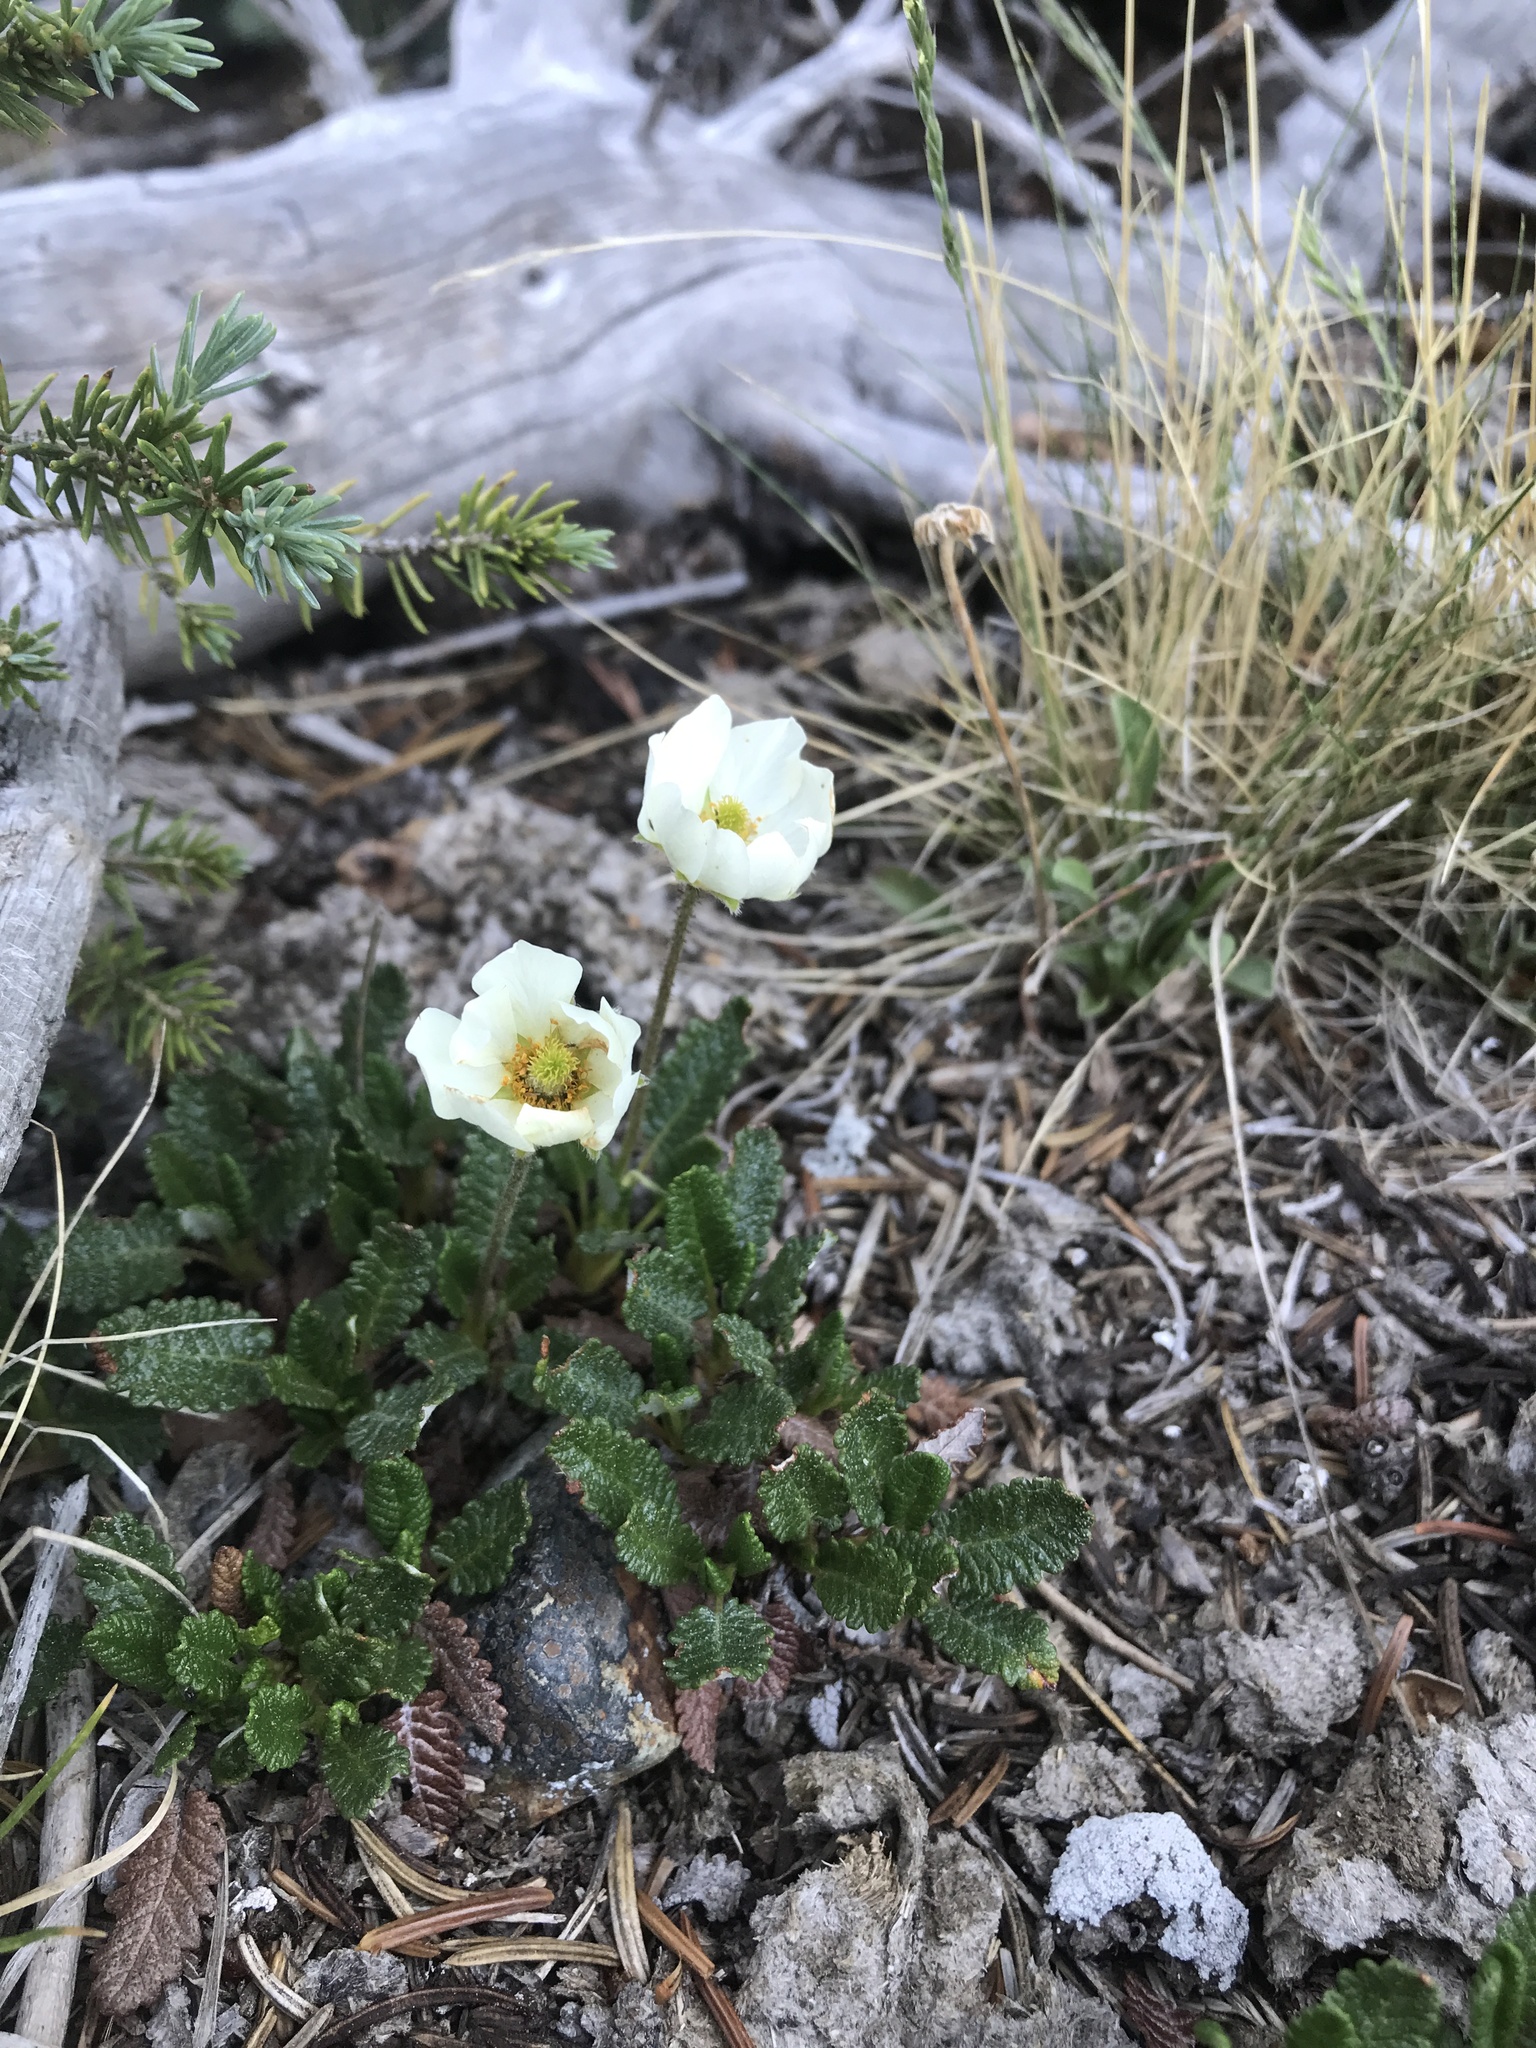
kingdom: Plantae
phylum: Tracheophyta
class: Magnoliopsida
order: Rosales
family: Rosaceae
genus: Dryas
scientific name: Dryas octopetala
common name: Eight-petal mountain-avens
